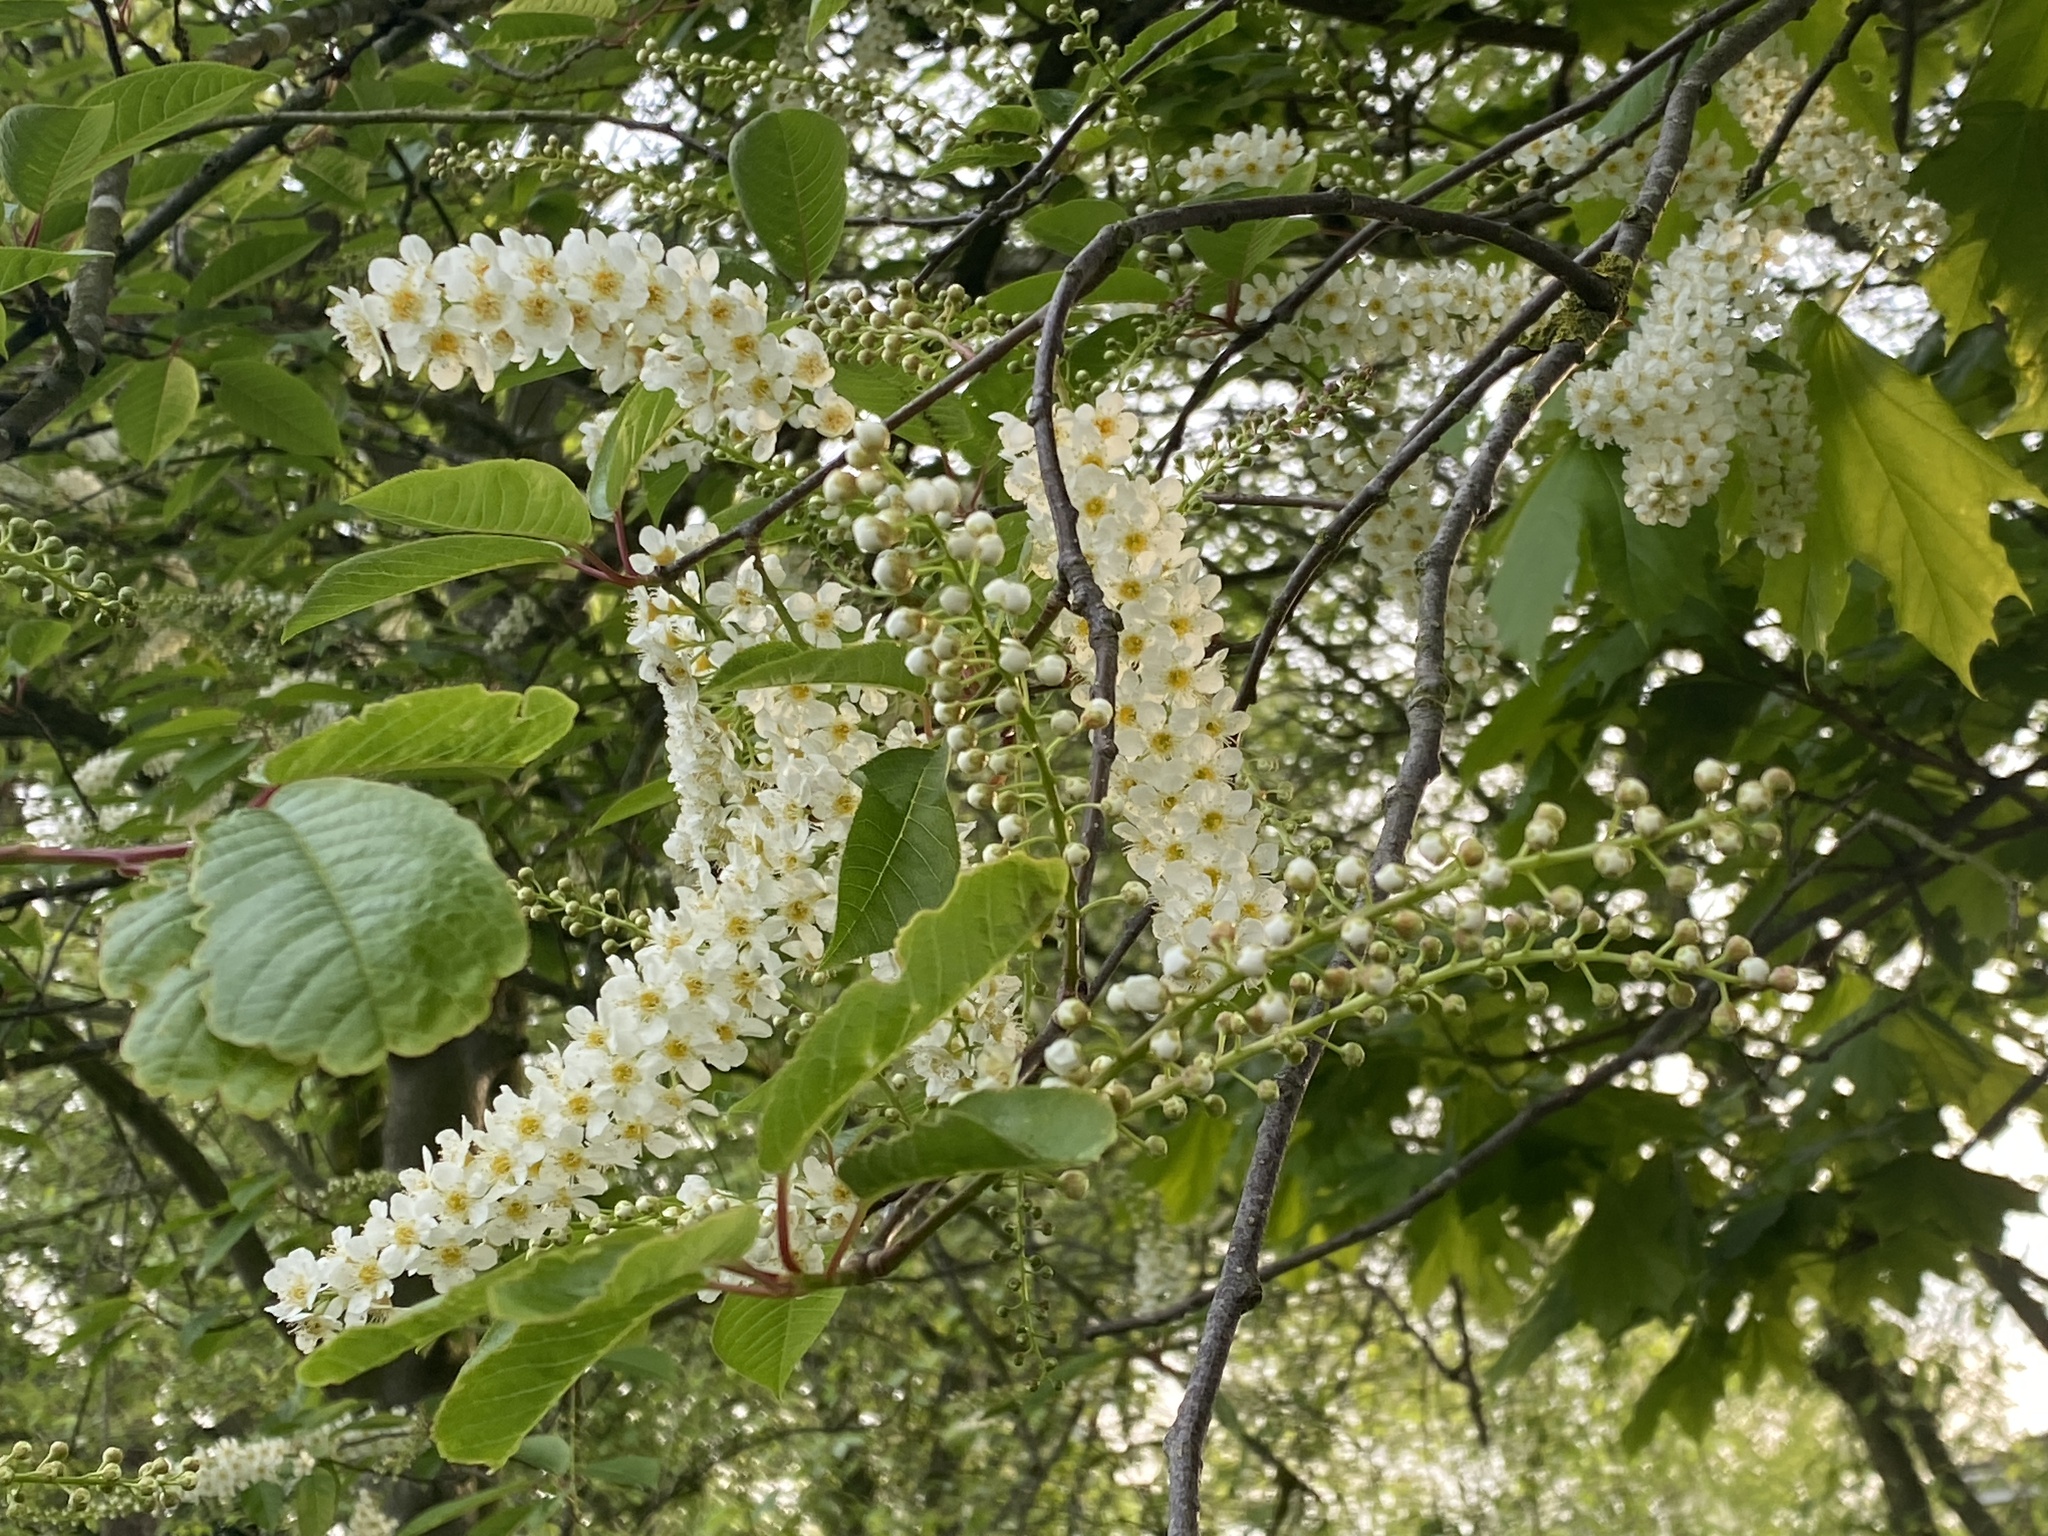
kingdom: Plantae
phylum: Tracheophyta
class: Magnoliopsida
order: Rosales
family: Rosaceae
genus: Prunus
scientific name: Prunus padus
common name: Bird cherry
